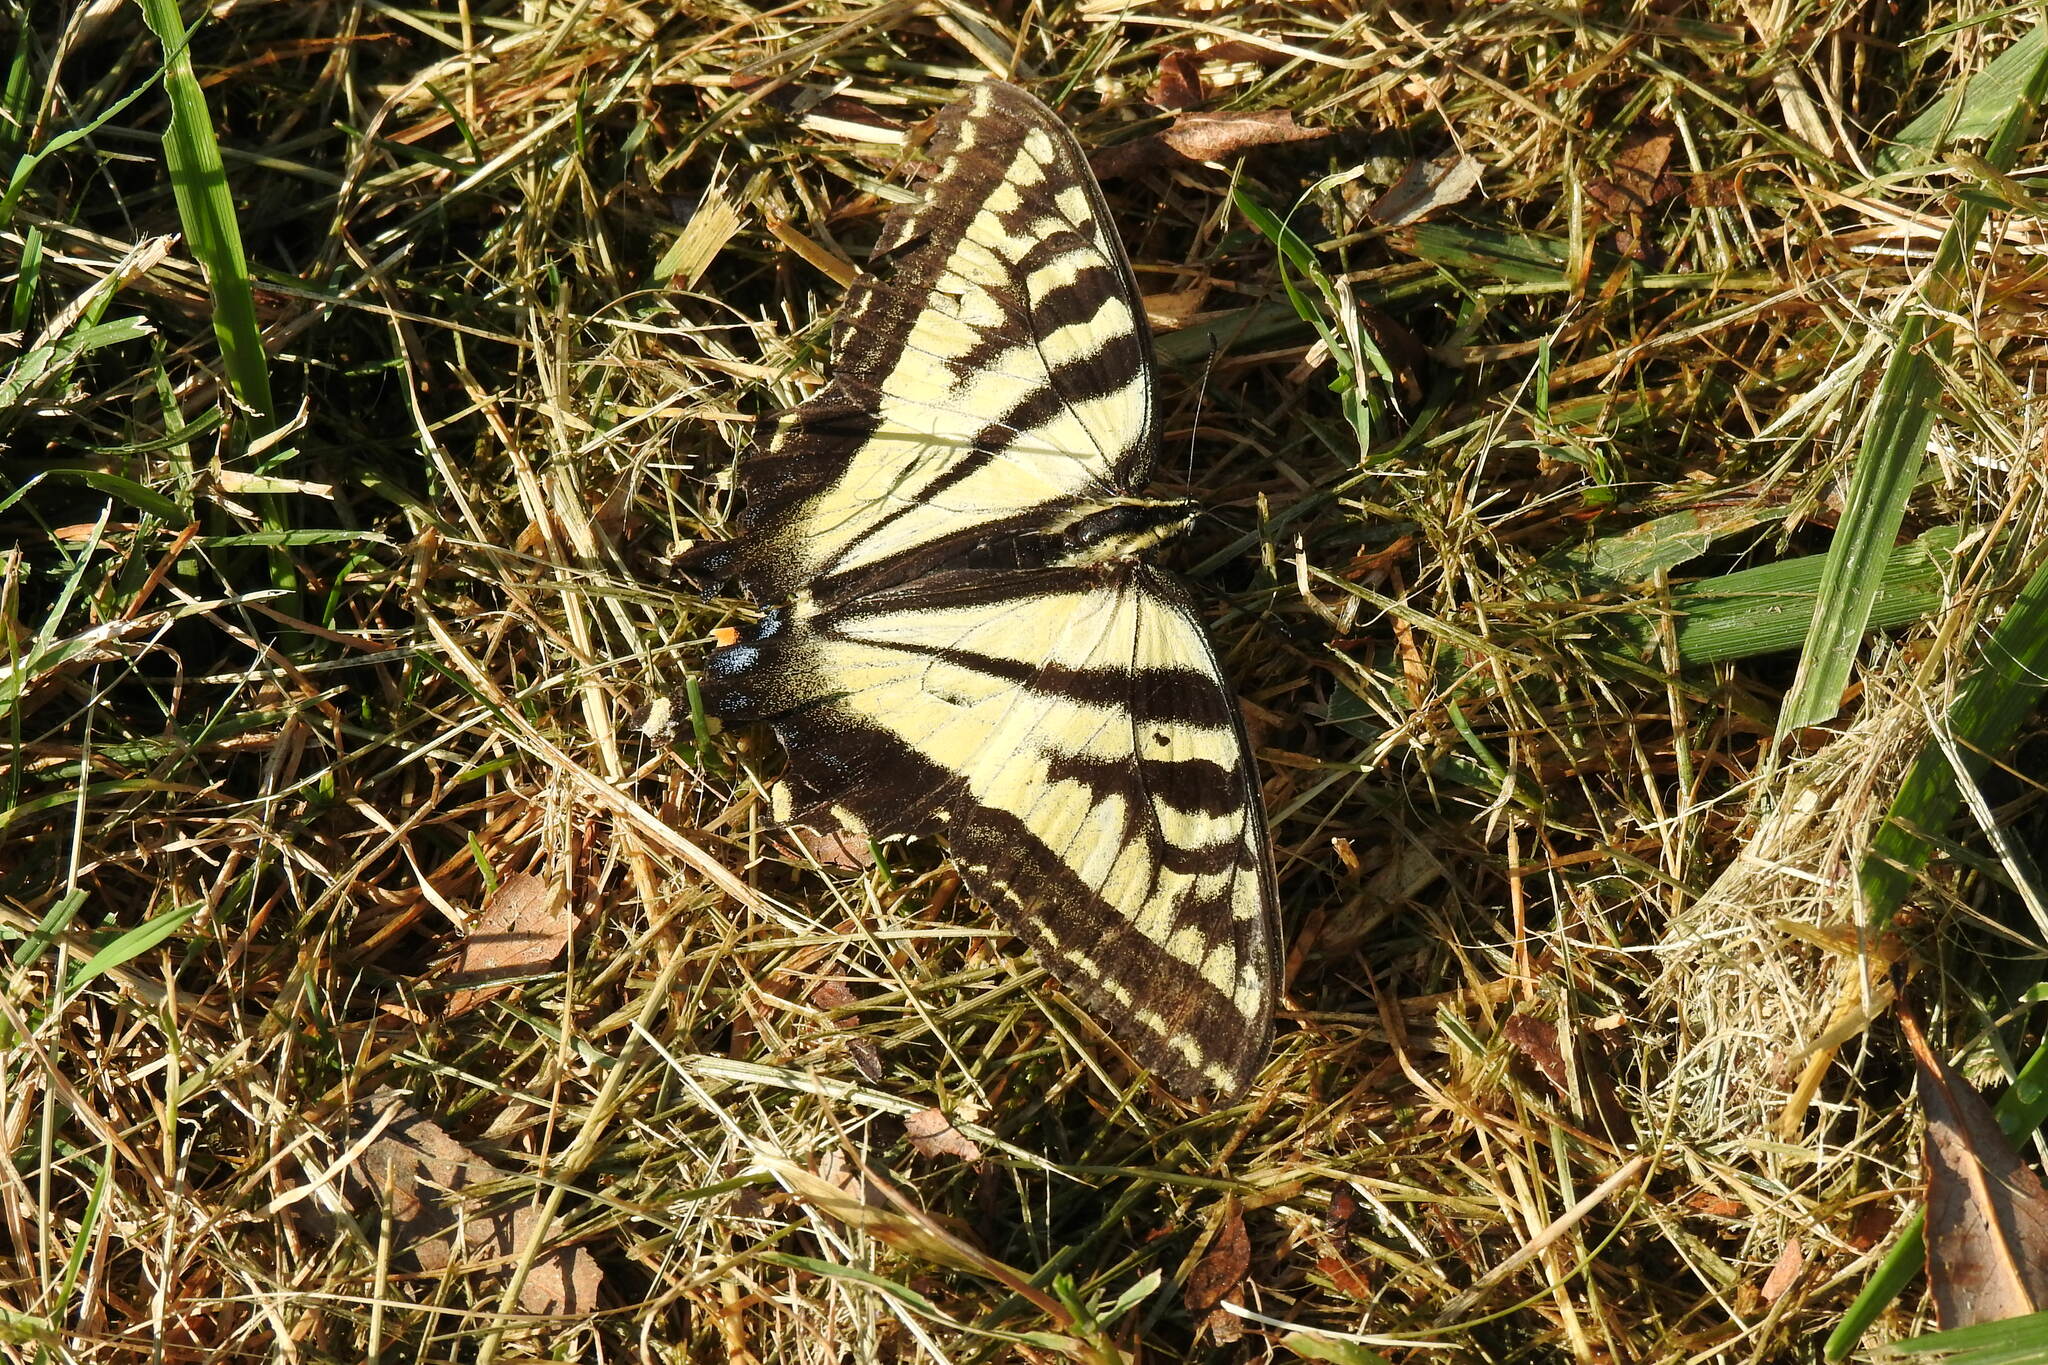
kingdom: Animalia
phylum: Arthropoda
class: Insecta
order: Lepidoptera
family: Papilionidae
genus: Papilio
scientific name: Papilio rutulus
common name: Western tiger swallowtail
